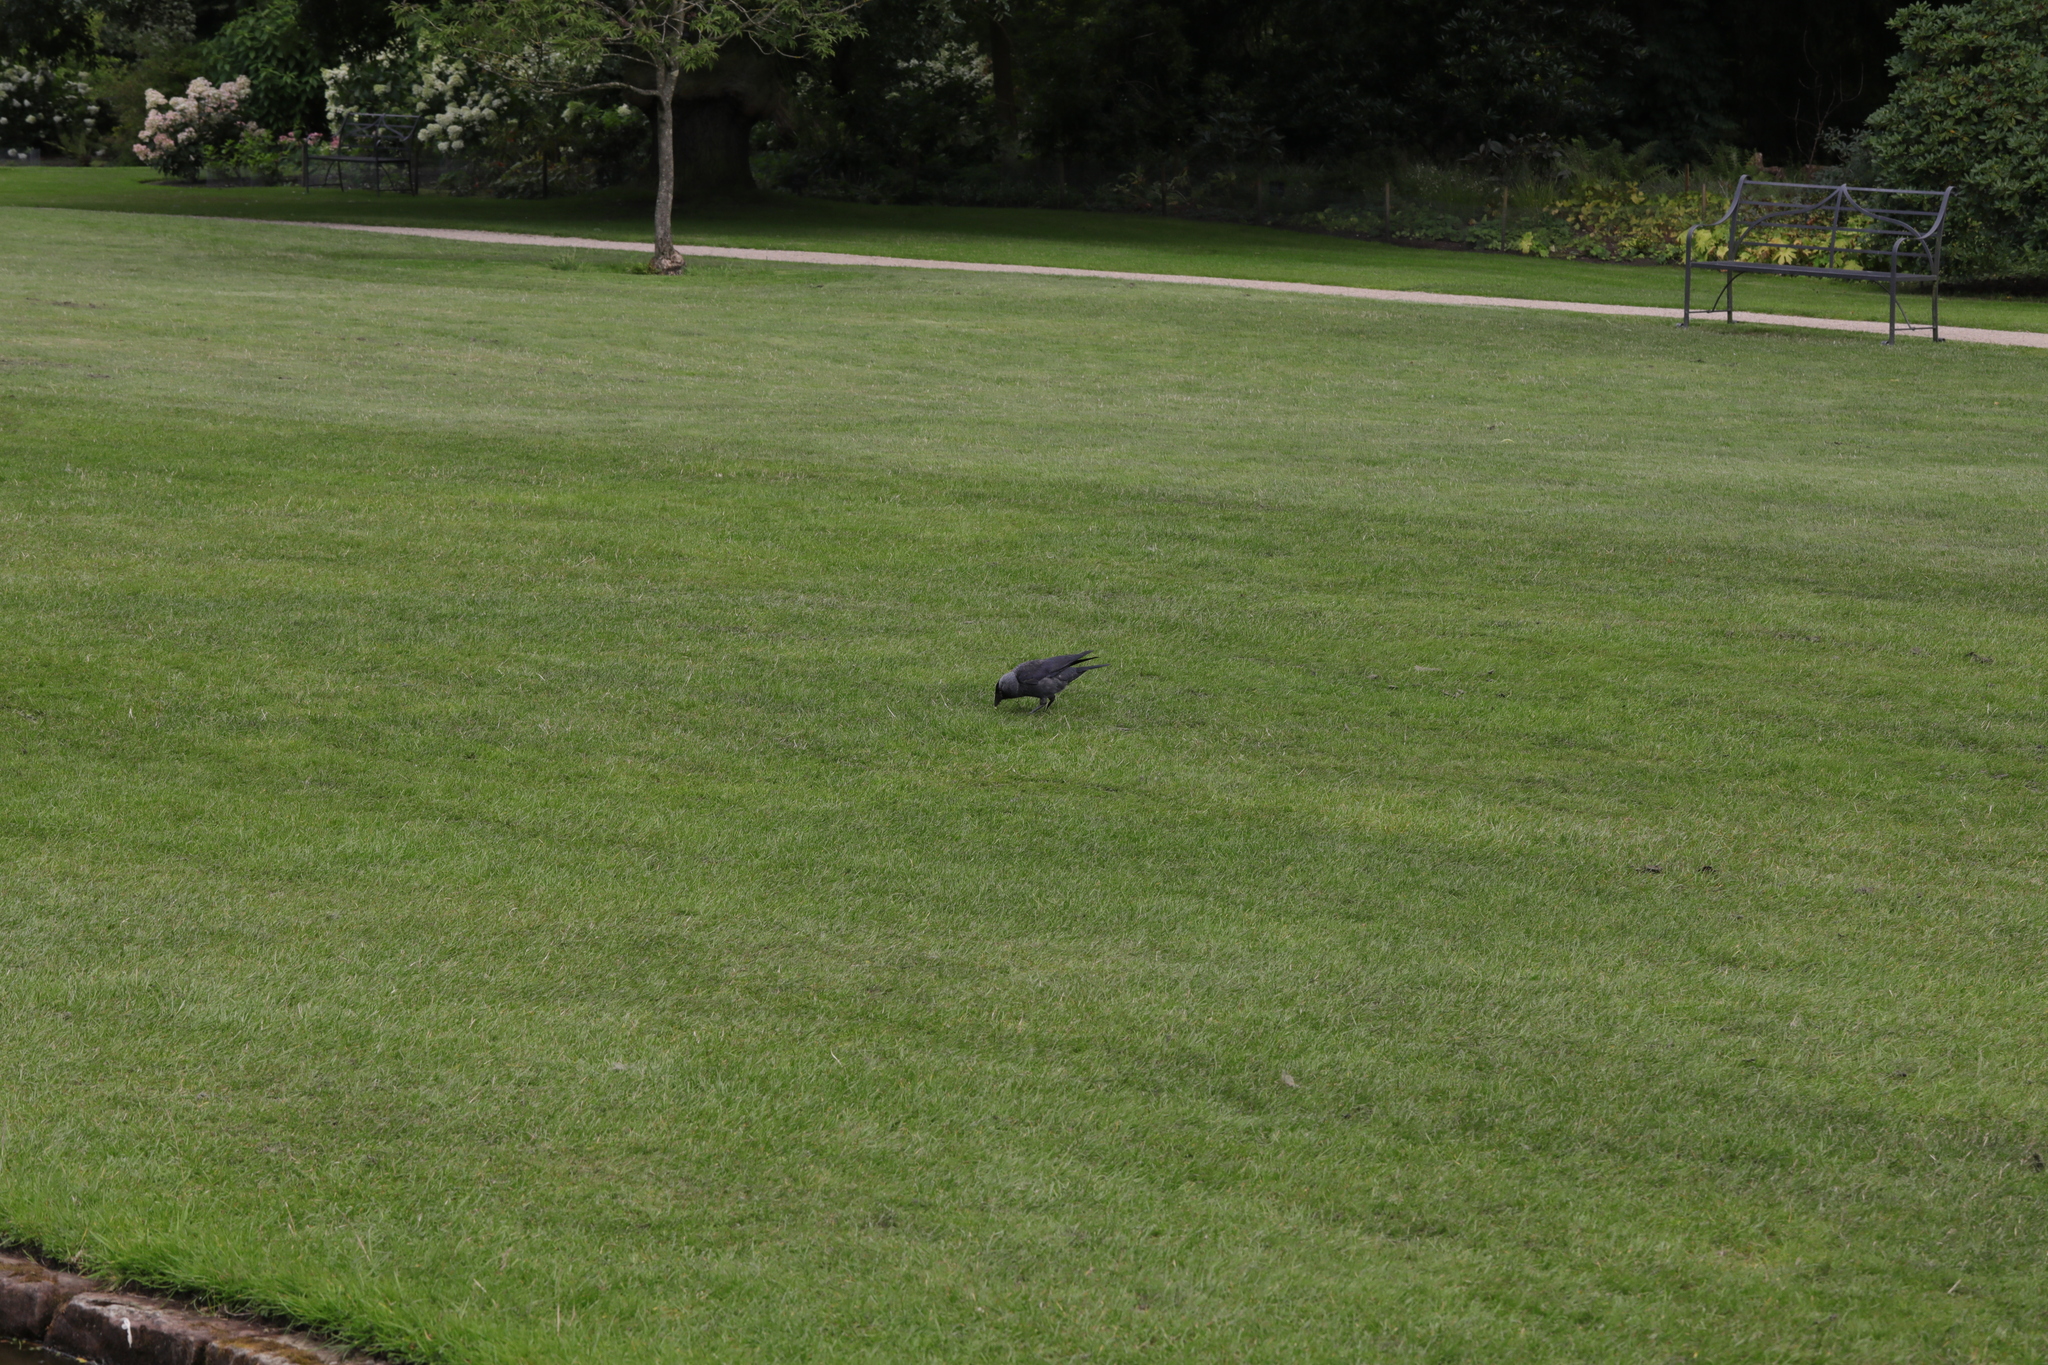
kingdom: Animalia
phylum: Chordata
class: Aves
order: Passeriformes
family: Corvidae
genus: Coloeus
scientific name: Coloeus monedula
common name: Western jackdaw
